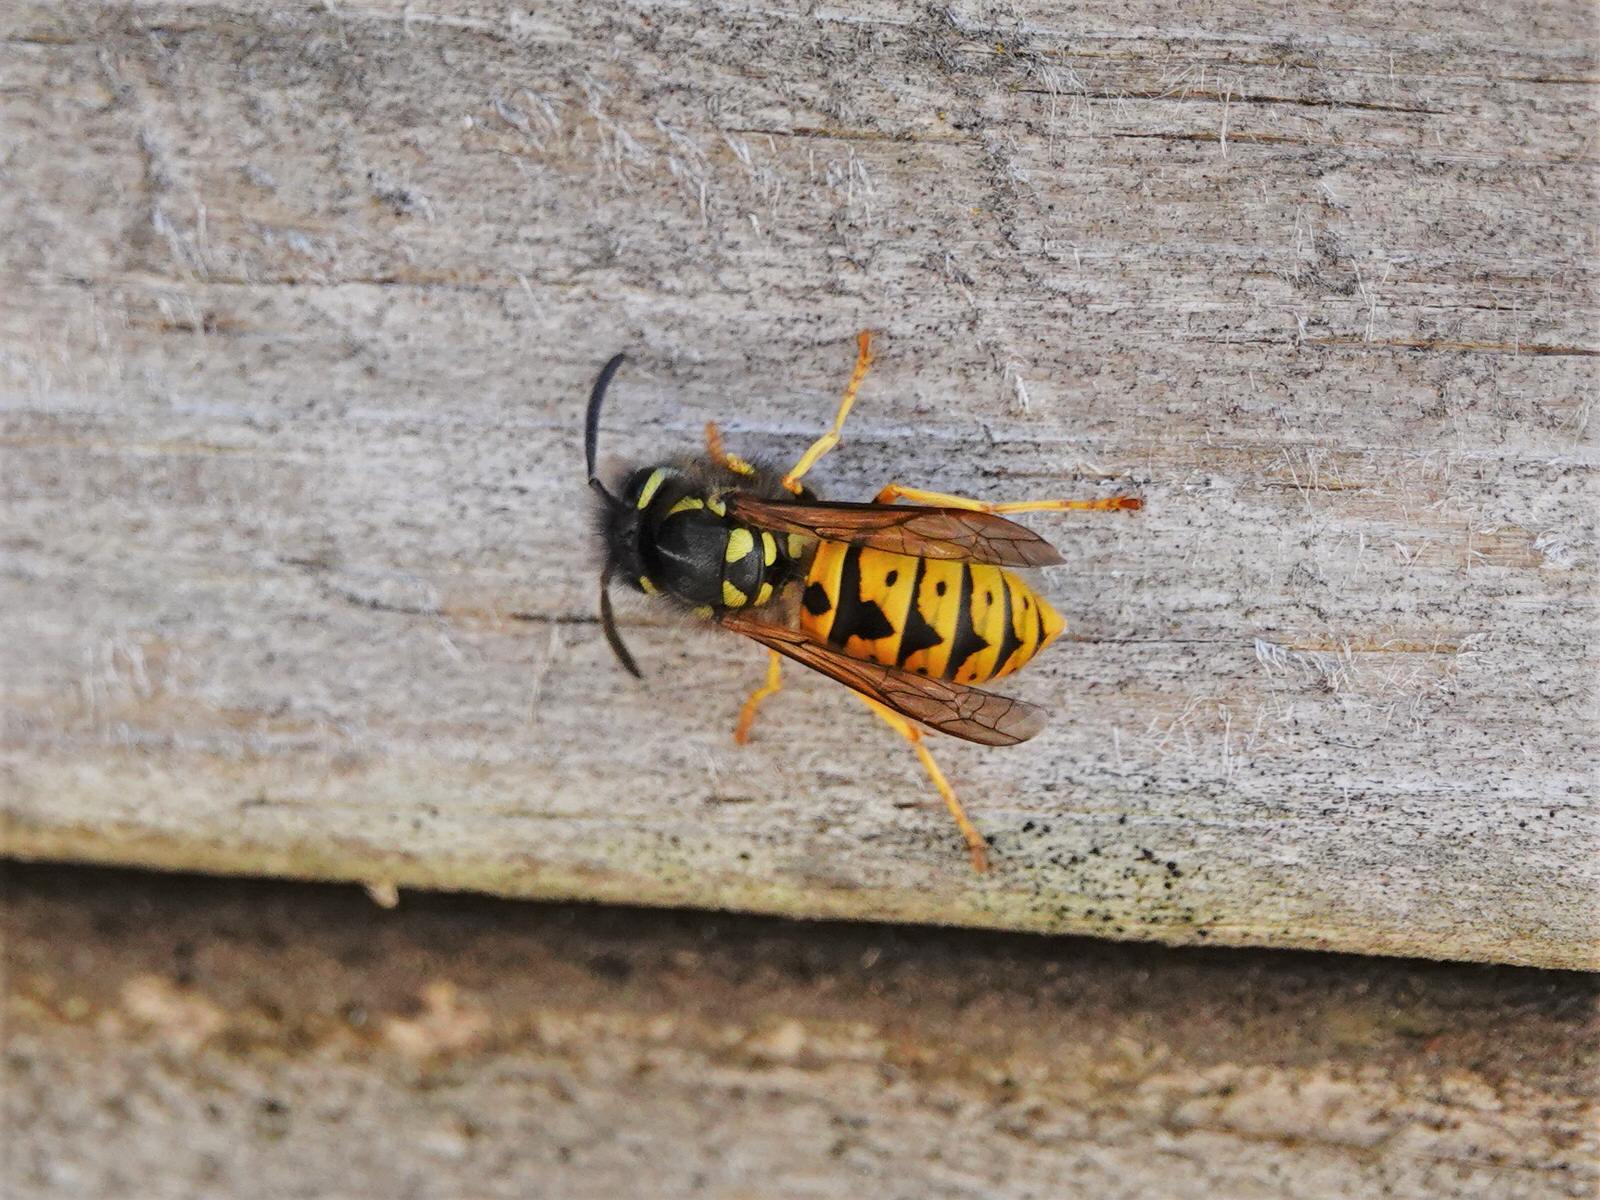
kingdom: Animalia
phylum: Arthropoda
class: Insecta
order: Hymenoptera
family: Vespidae
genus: Vespula
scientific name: Vespula germanica
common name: German wasp
